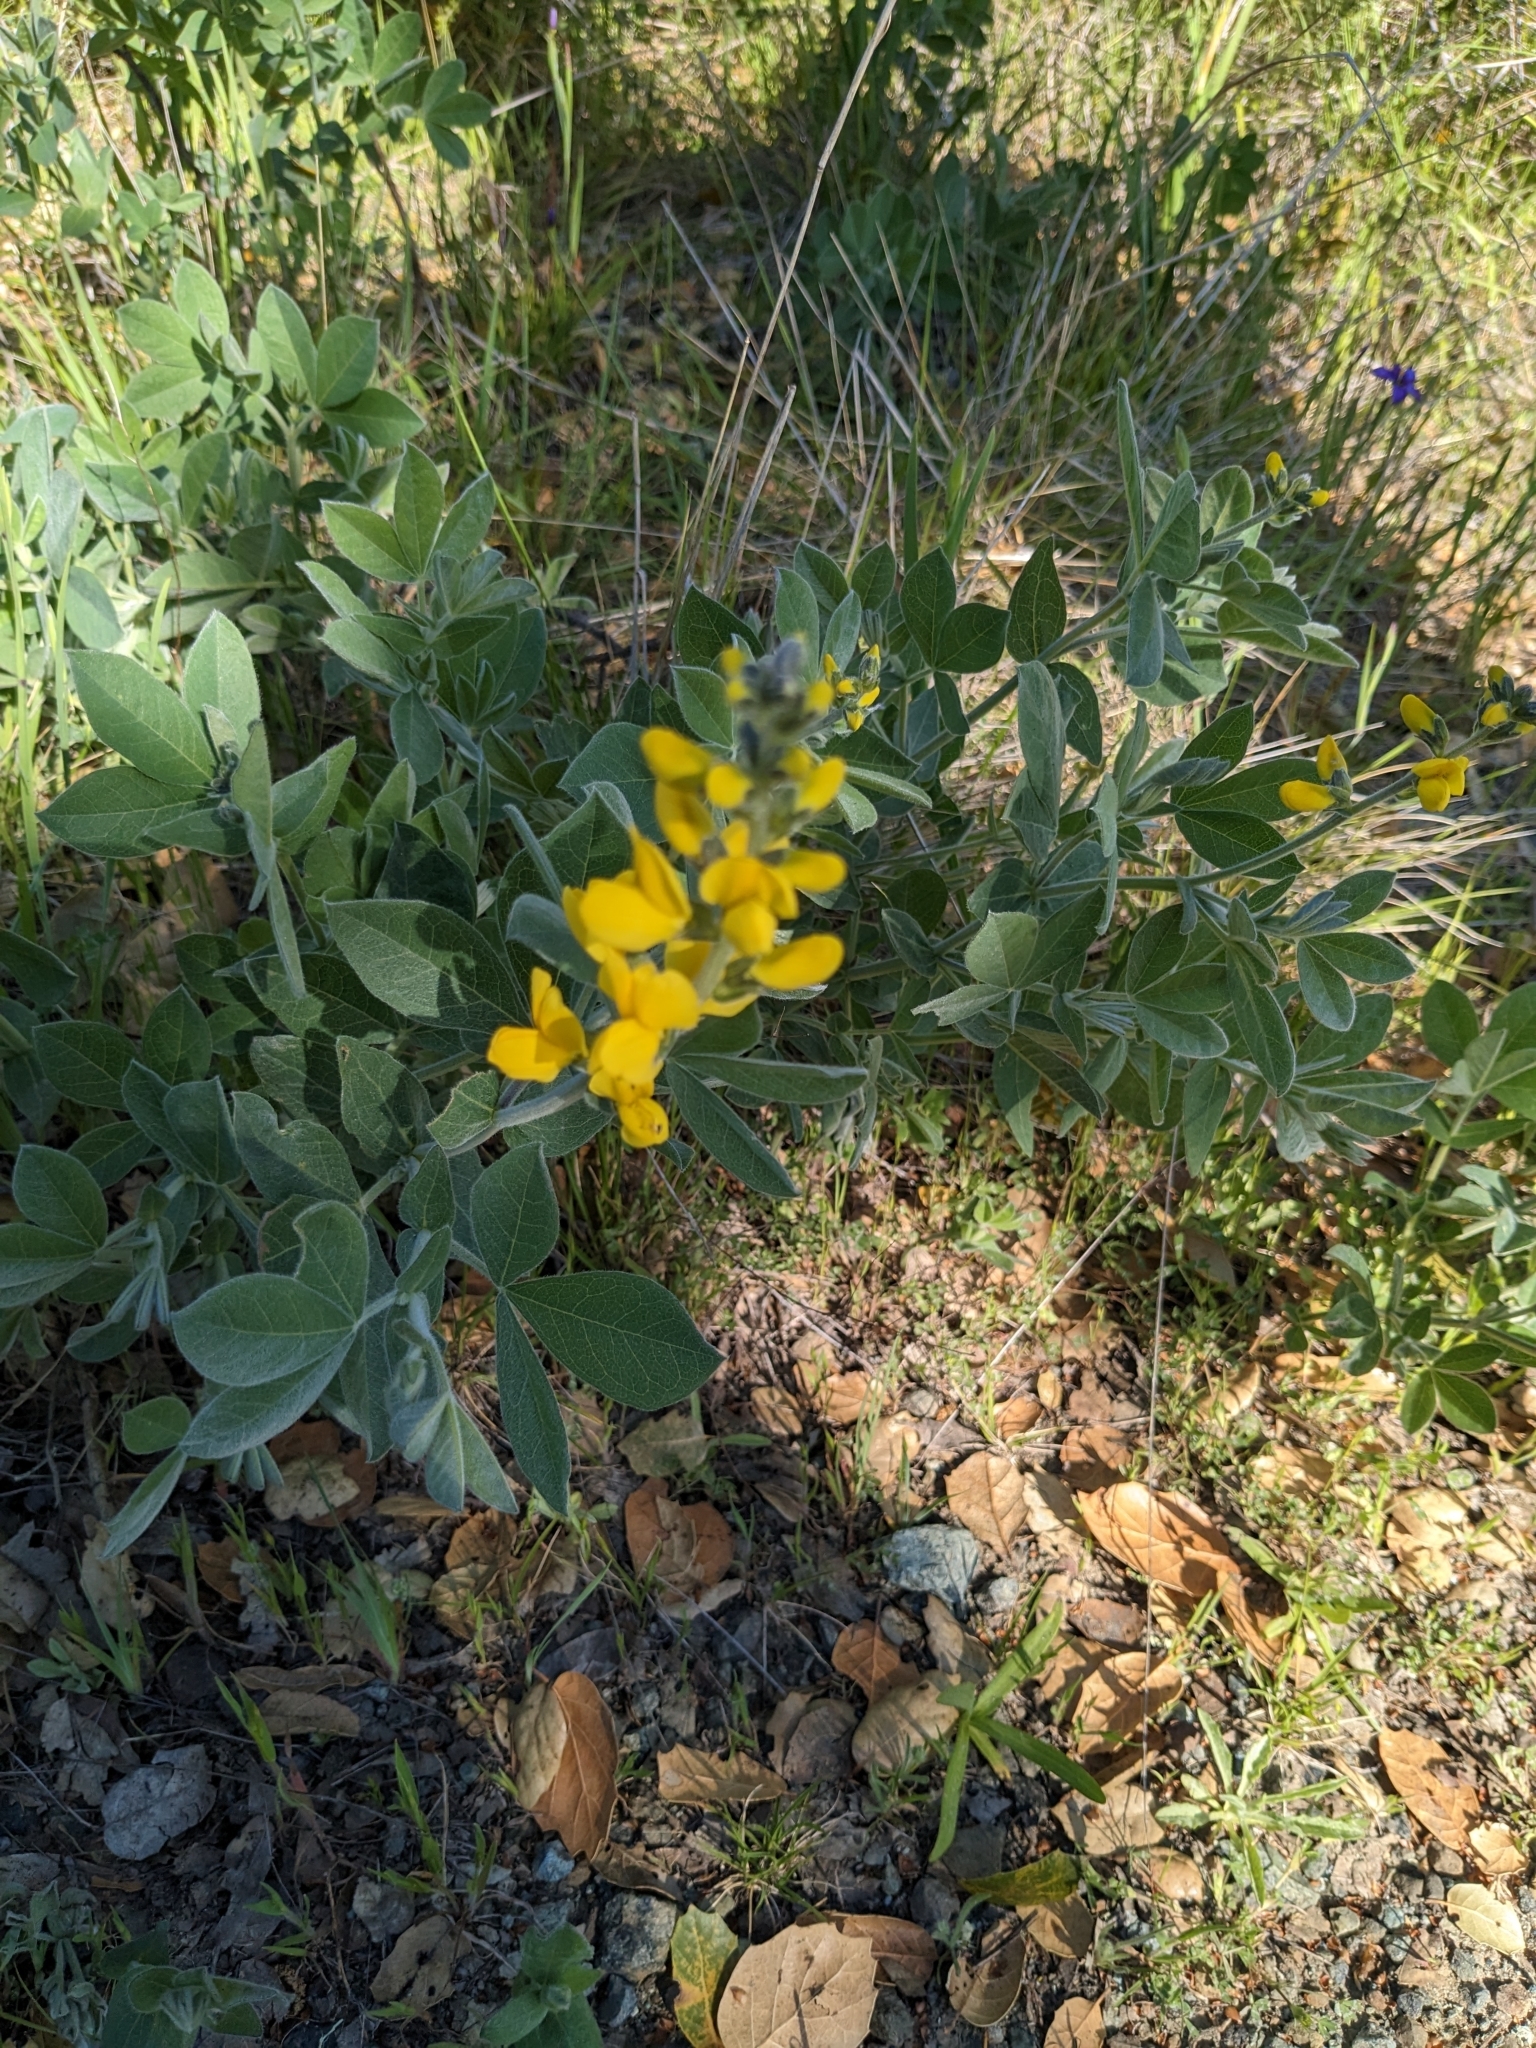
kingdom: Plantae
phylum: Tracheophyta
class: Magnoliopsida
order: Fabales
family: Fabaceae
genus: Thermopsis
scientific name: Thermopsis californica
